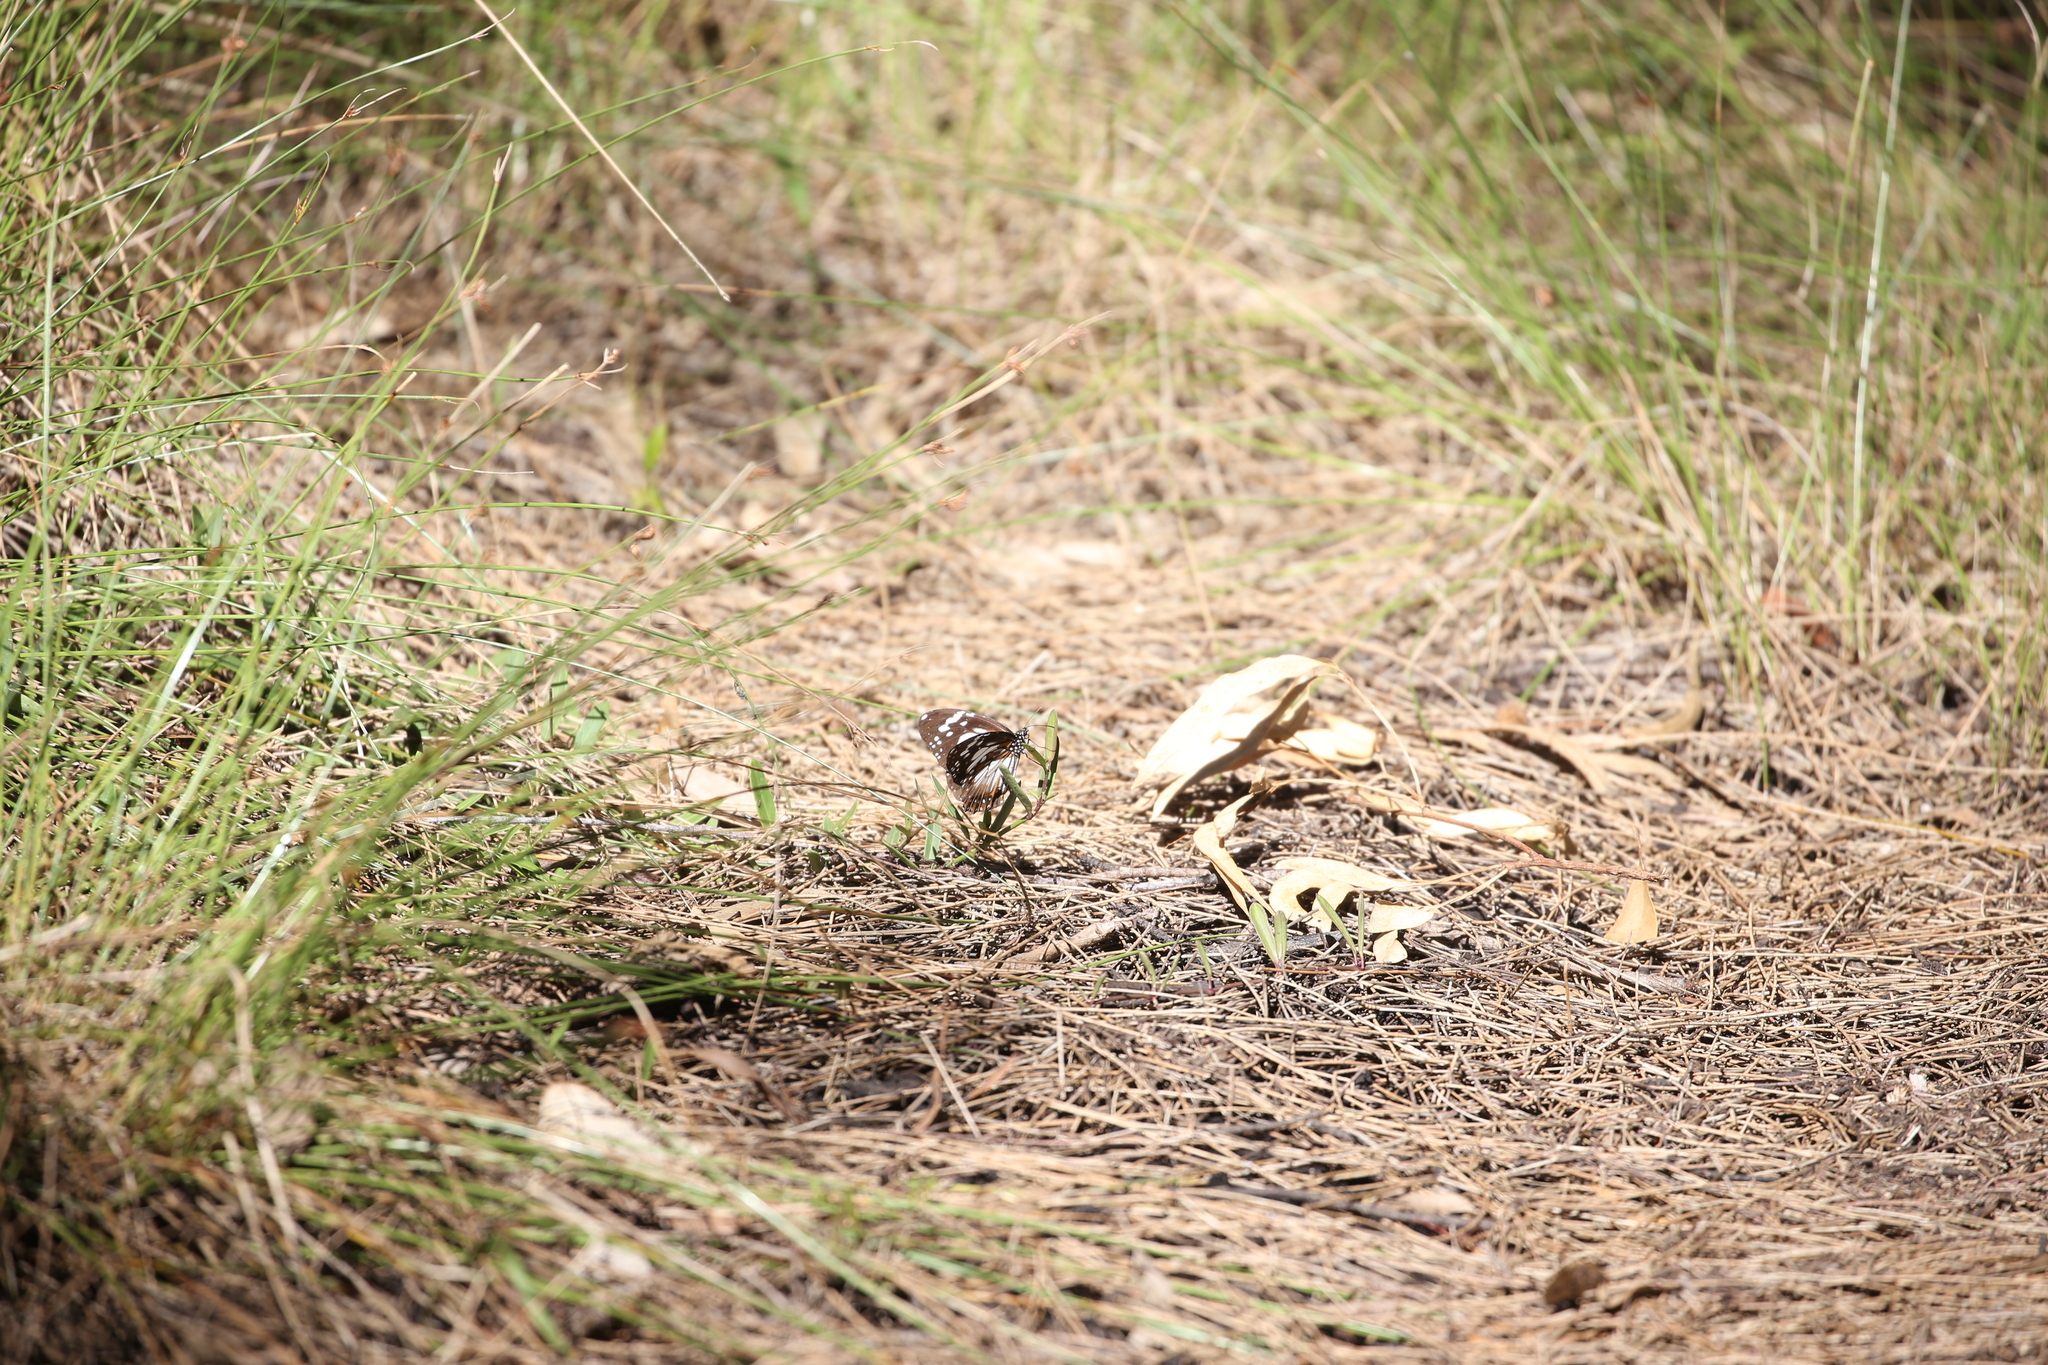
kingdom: Animalia
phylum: Arthropoda
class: Insecta
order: Lepidoptera
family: Nymphalidae
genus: Danaus
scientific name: Danaus affinis
